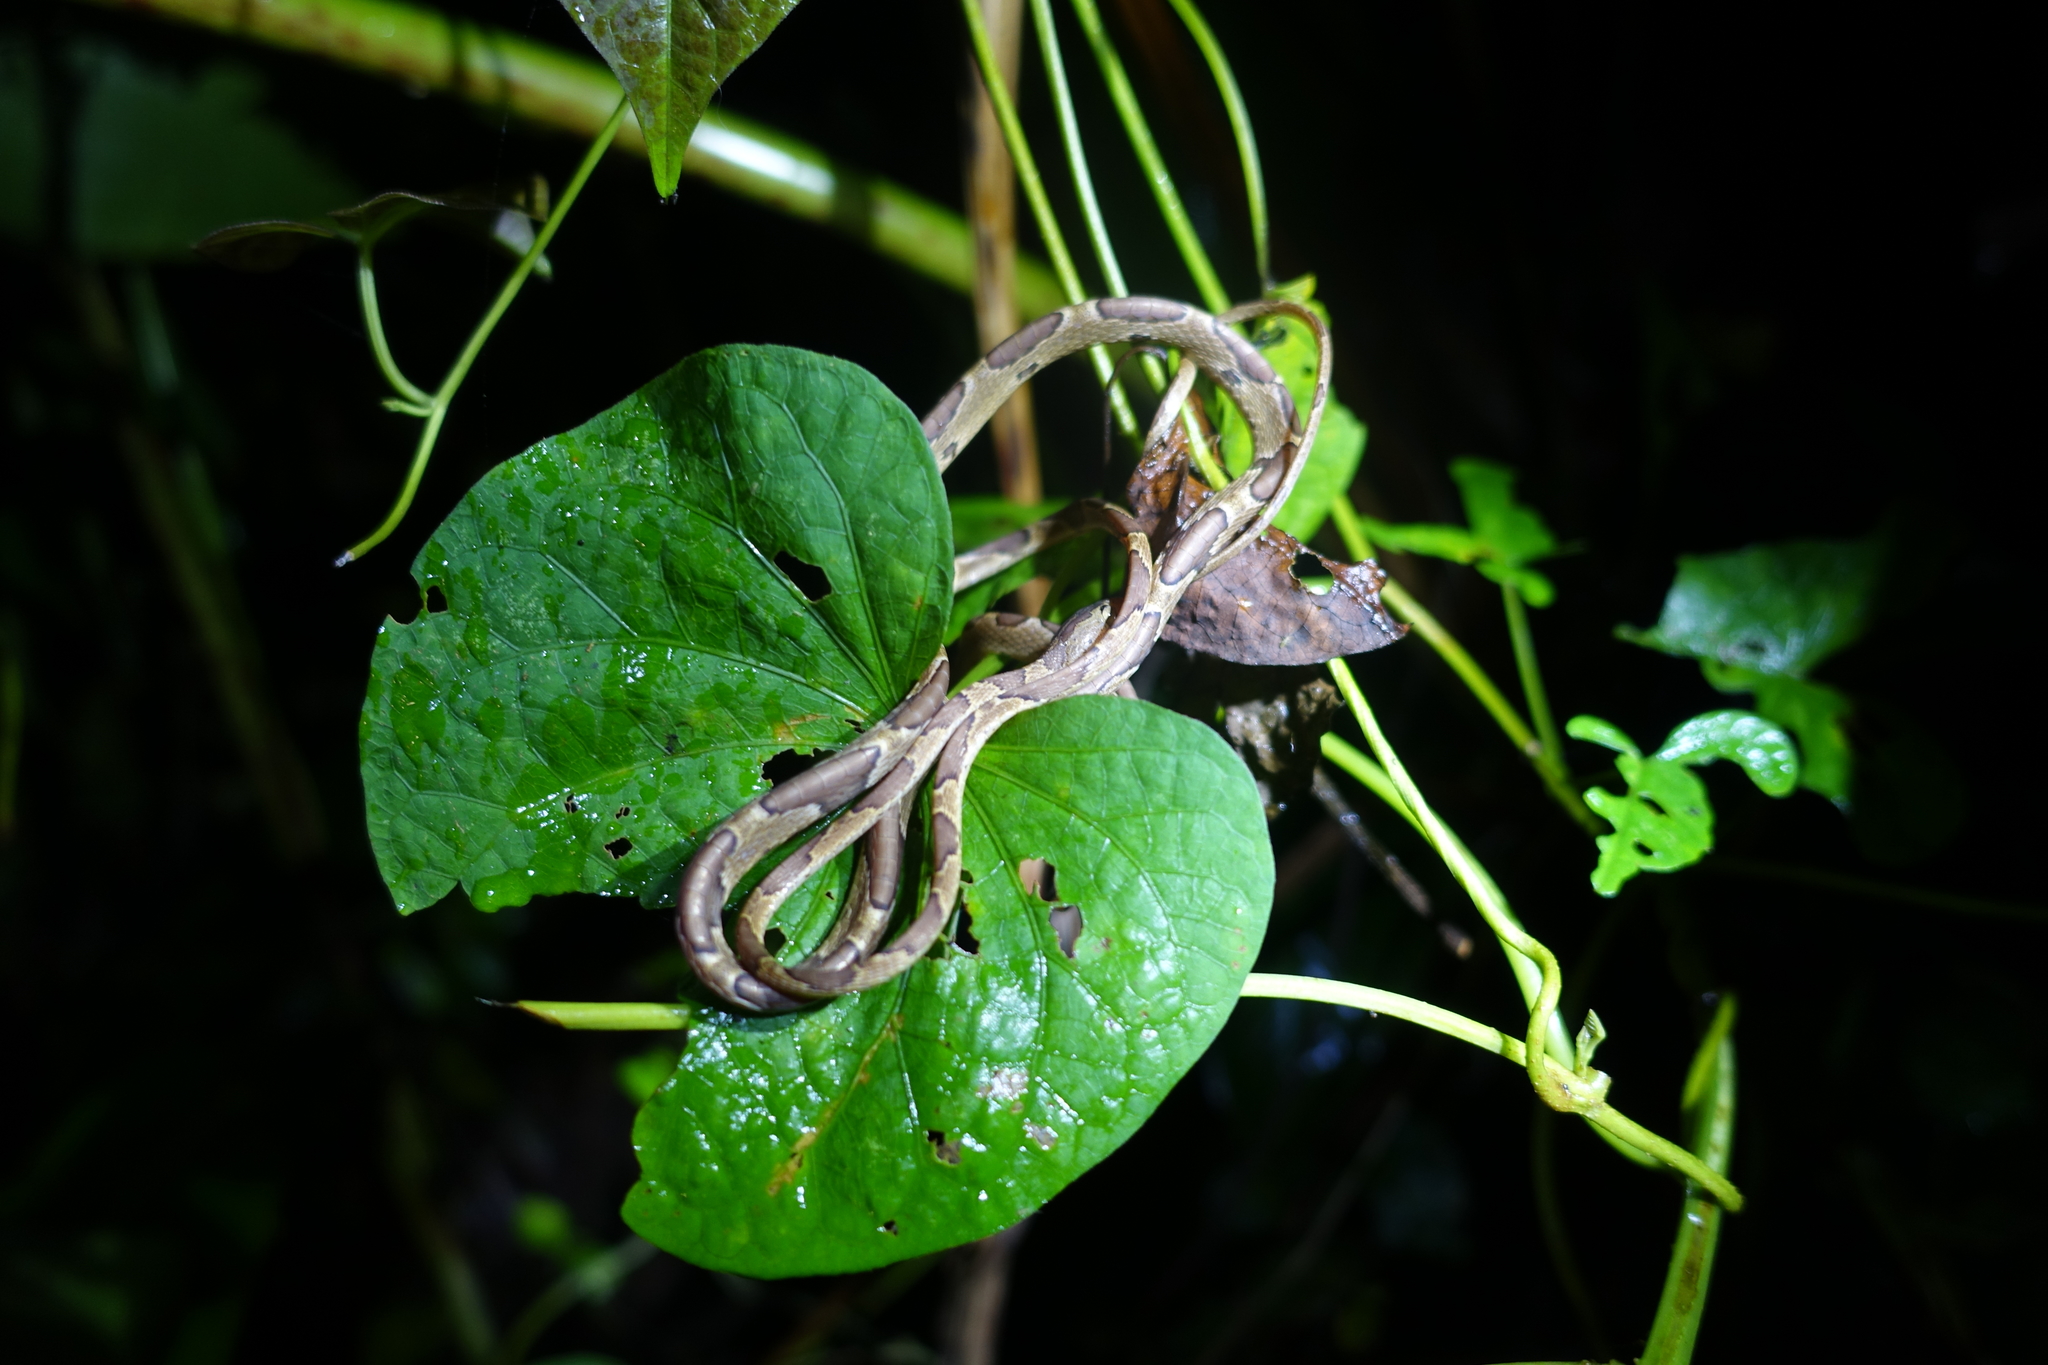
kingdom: Animalia
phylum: Chordata
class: Squamata
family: Colubridae
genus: Imantodes
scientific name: Imantodes cenchoa
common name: Blunthead tree snake
